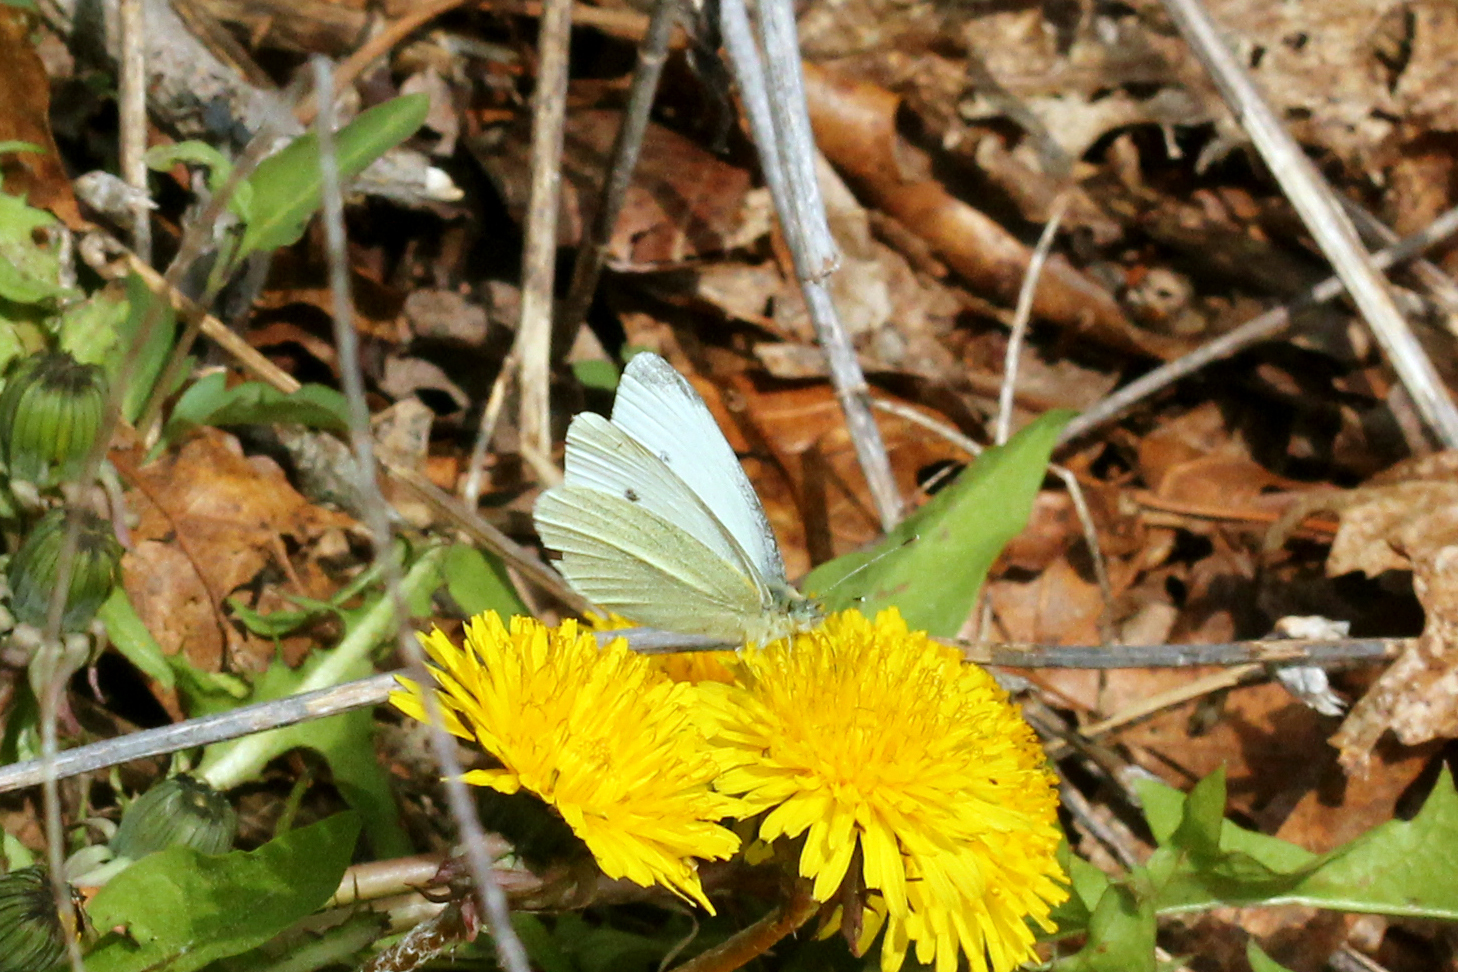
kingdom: Animalia
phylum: Arthropoda
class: Insecta
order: Lepidoptera
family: Pieridae
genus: Pieris
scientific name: Pieris rapae
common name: Small white
